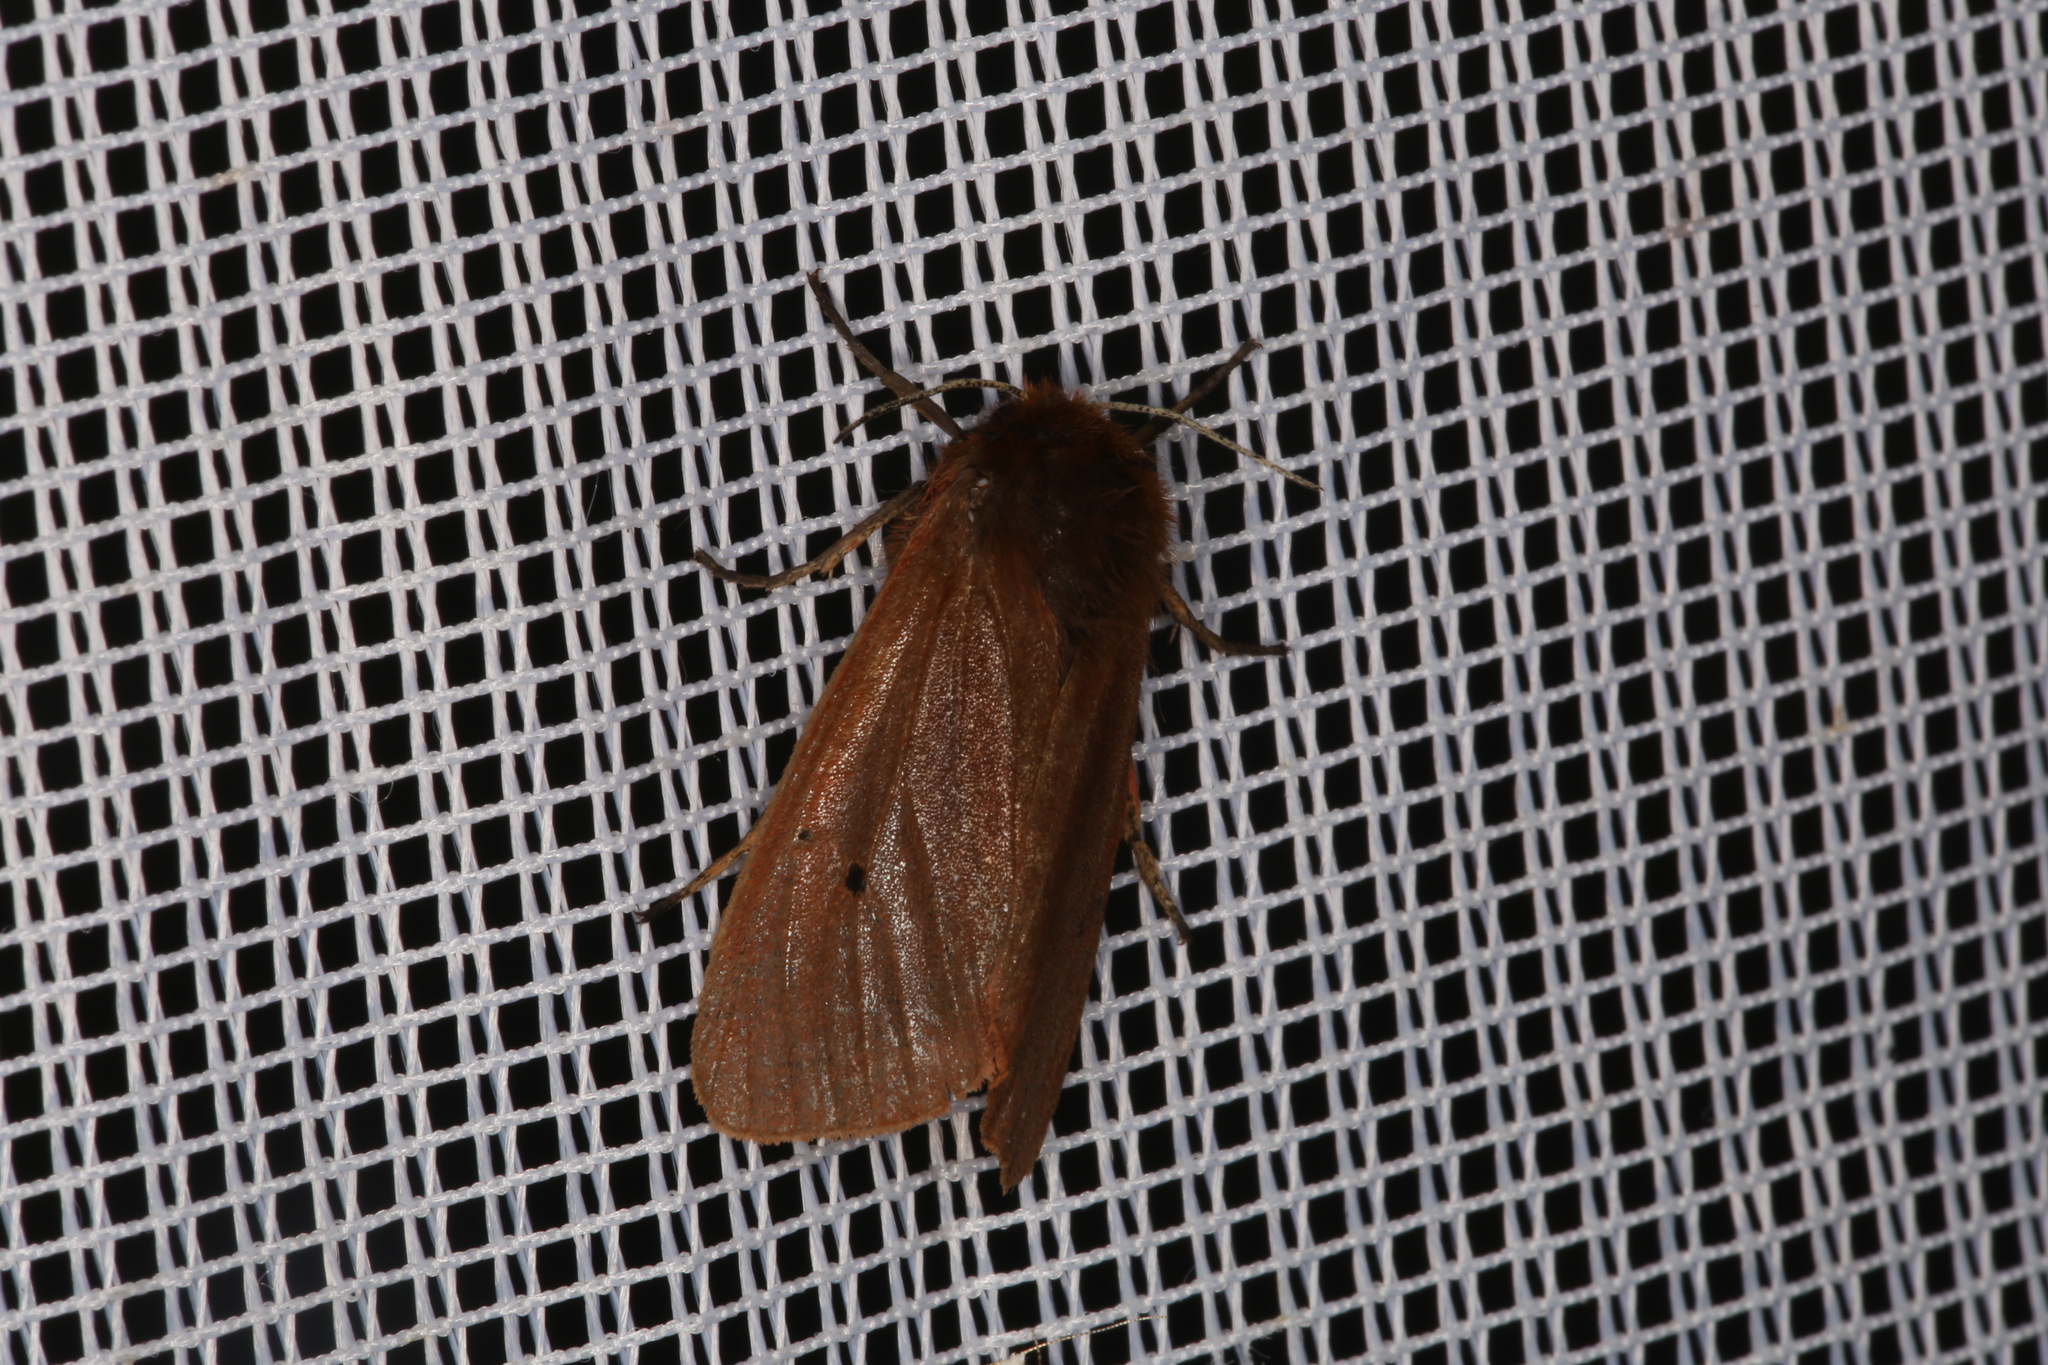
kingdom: Animalia
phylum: Arthropoda
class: Insecta
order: Lepidoptera
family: Erebidae
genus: Phragmatobia
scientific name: Phragmatobia fuliginosa
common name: Ruby tiger
